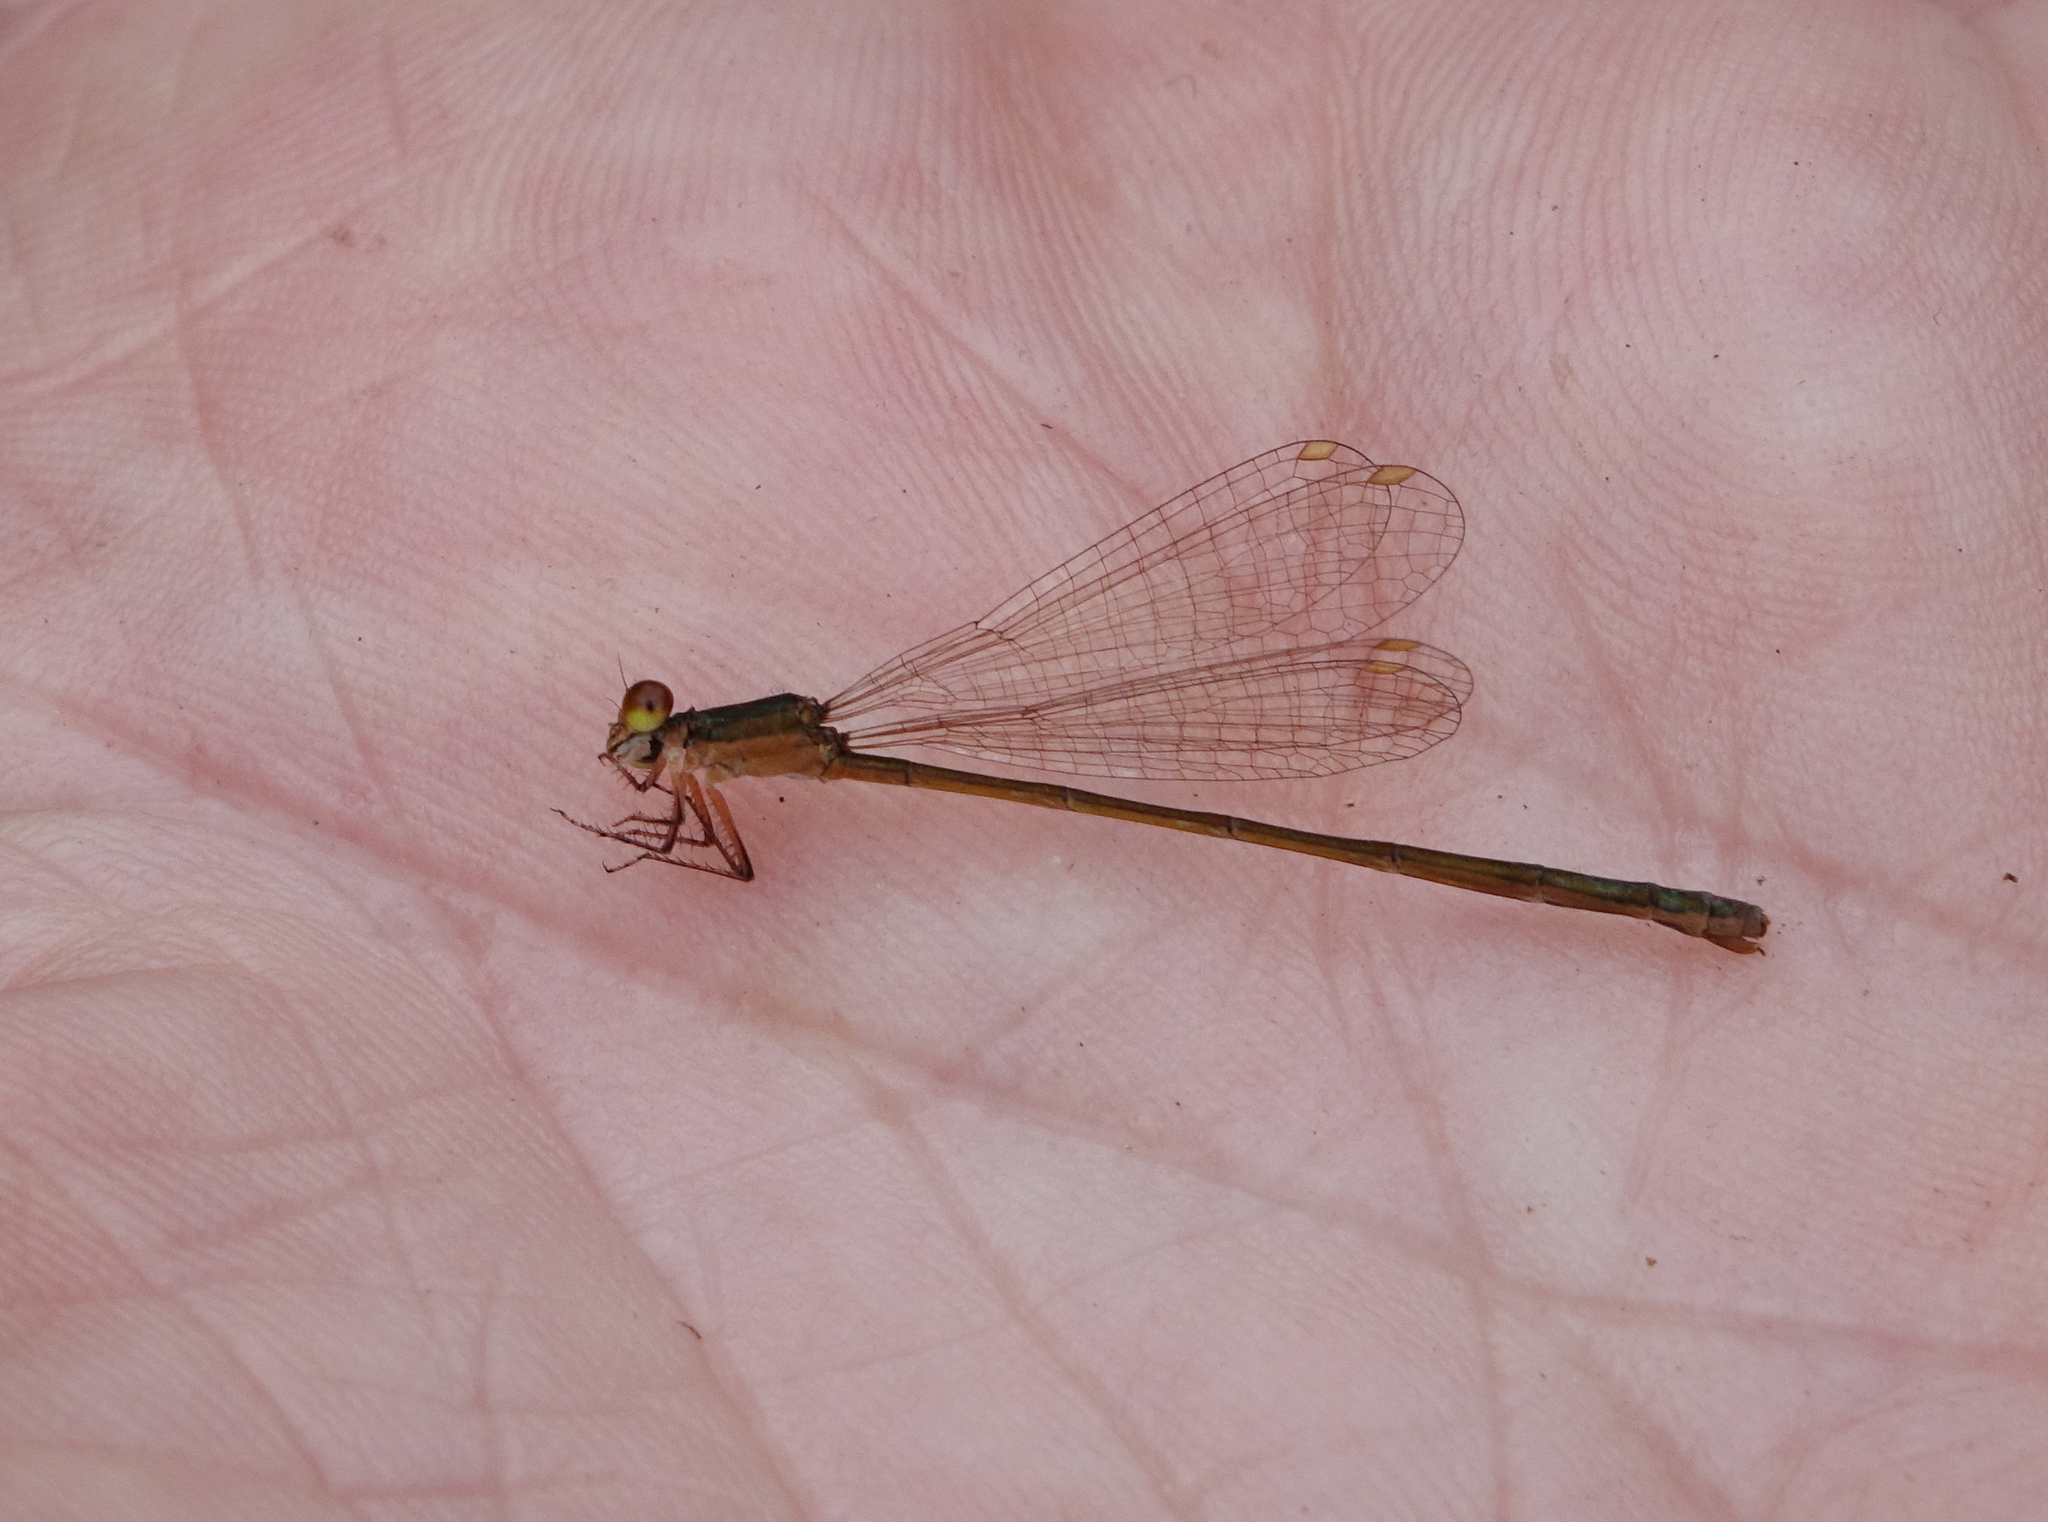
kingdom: Animalia
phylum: Arthropoda
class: Insecta
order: Odonata
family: Coenagrionidae
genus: Nehalennia
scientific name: Nehalennia speciosa
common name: Sedgling
